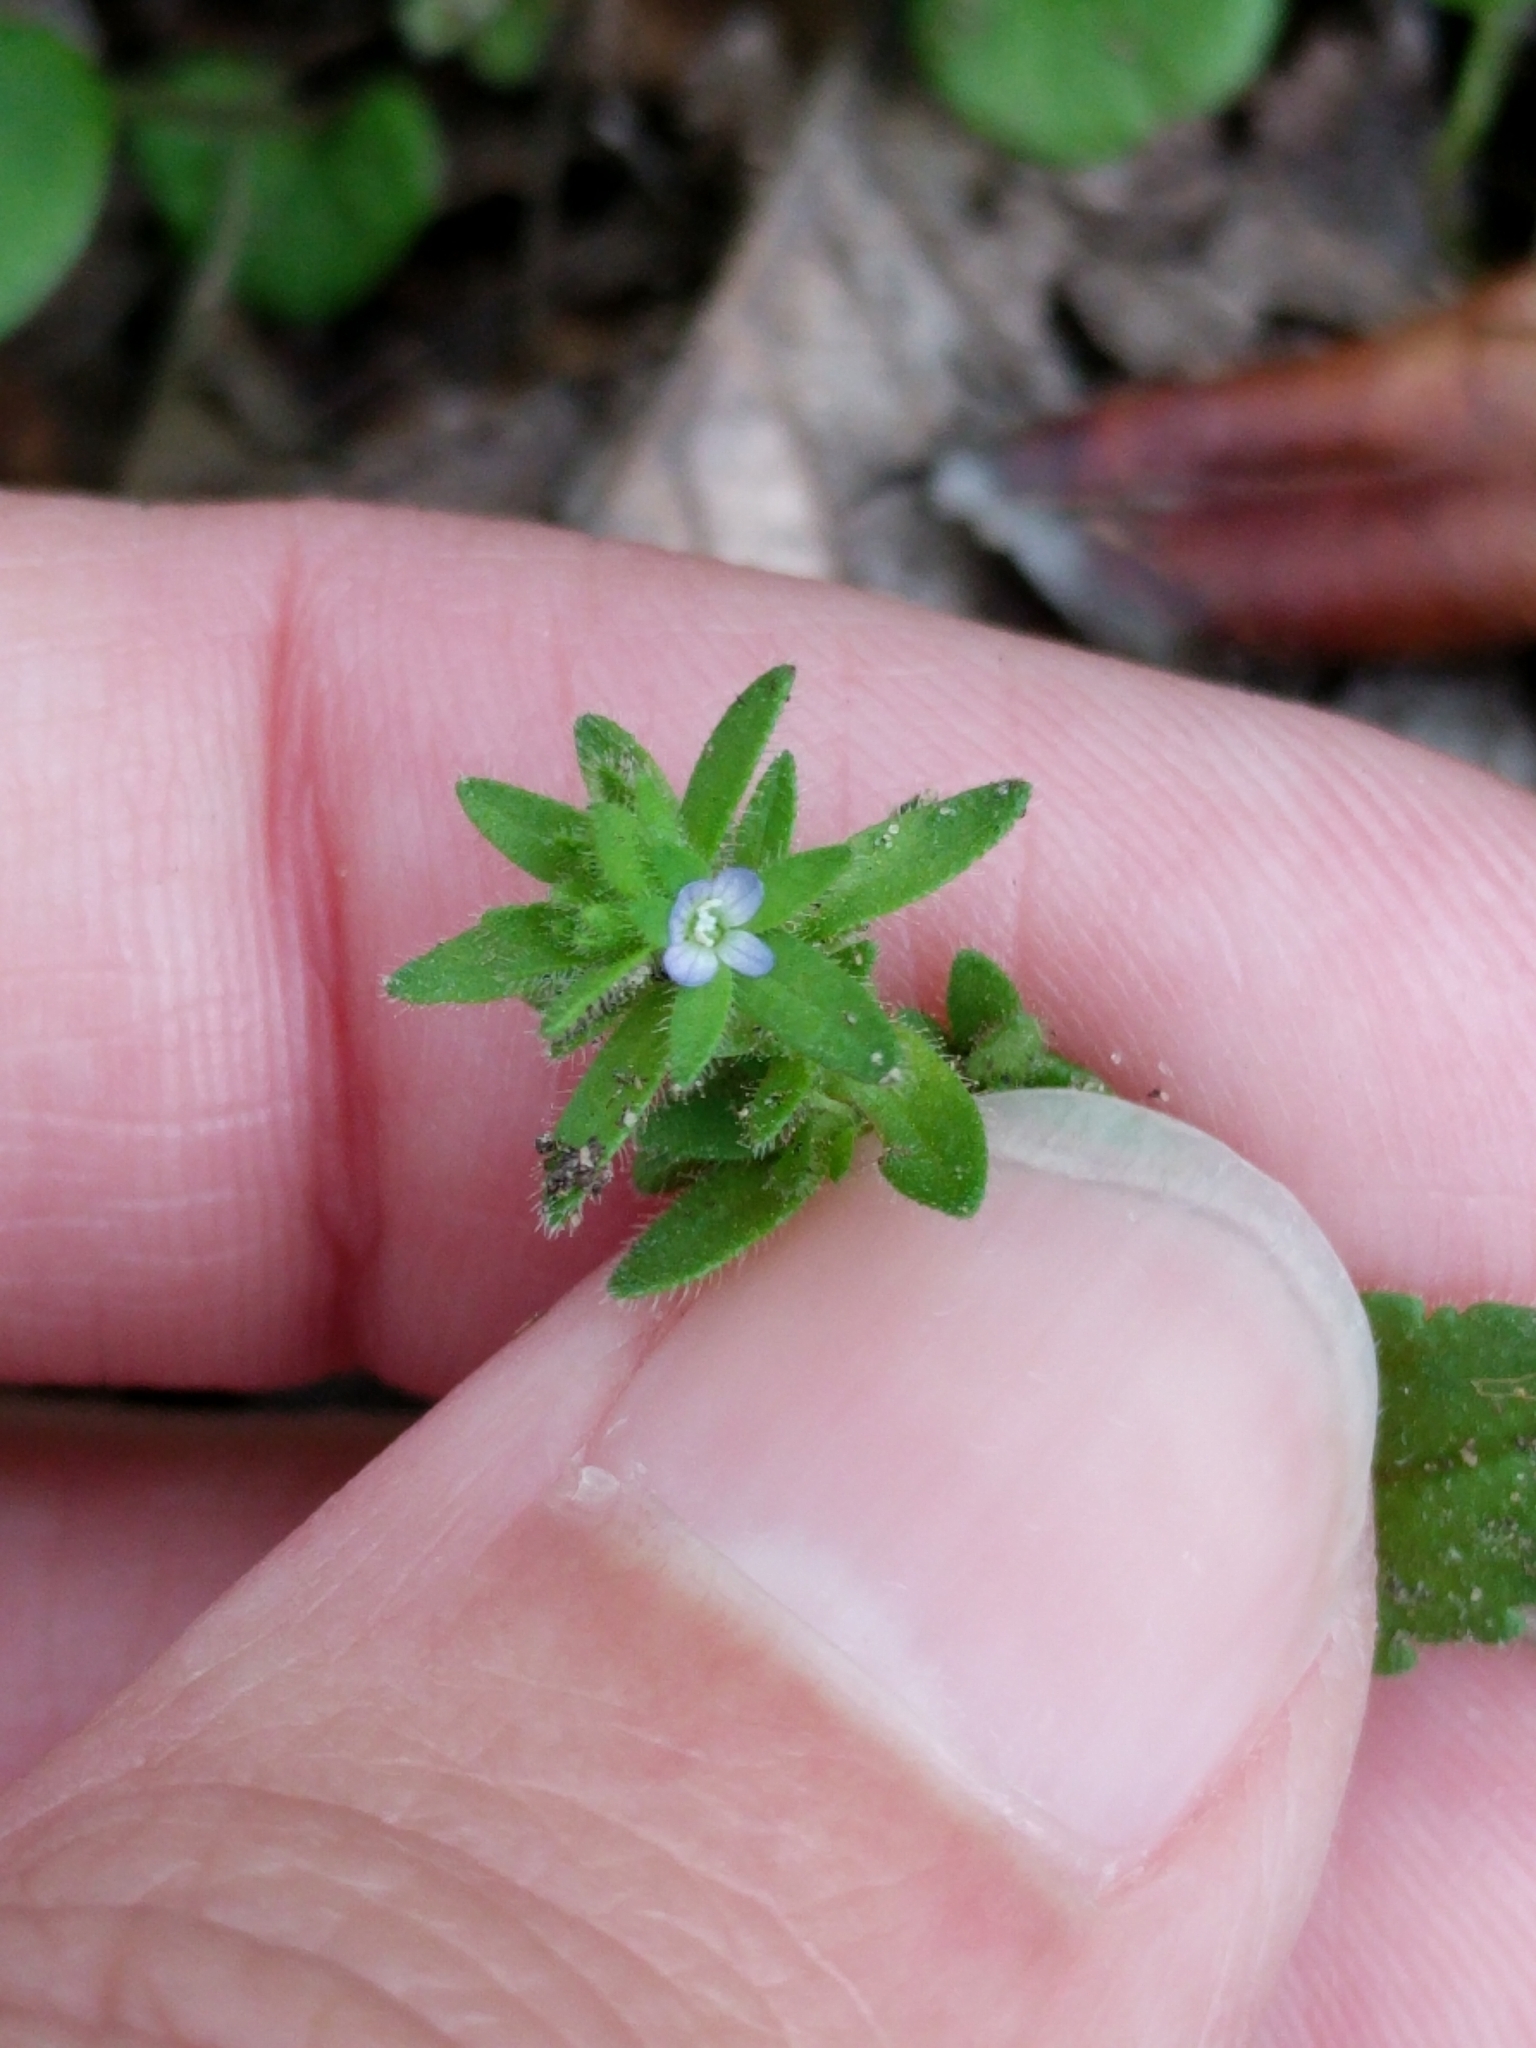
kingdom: Plantae
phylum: Tracheophyta
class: Magnoliopsida
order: Lamiales
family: Plantaginaceae
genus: Veronica
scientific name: Veronica arvensis
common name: Corn speedwell
